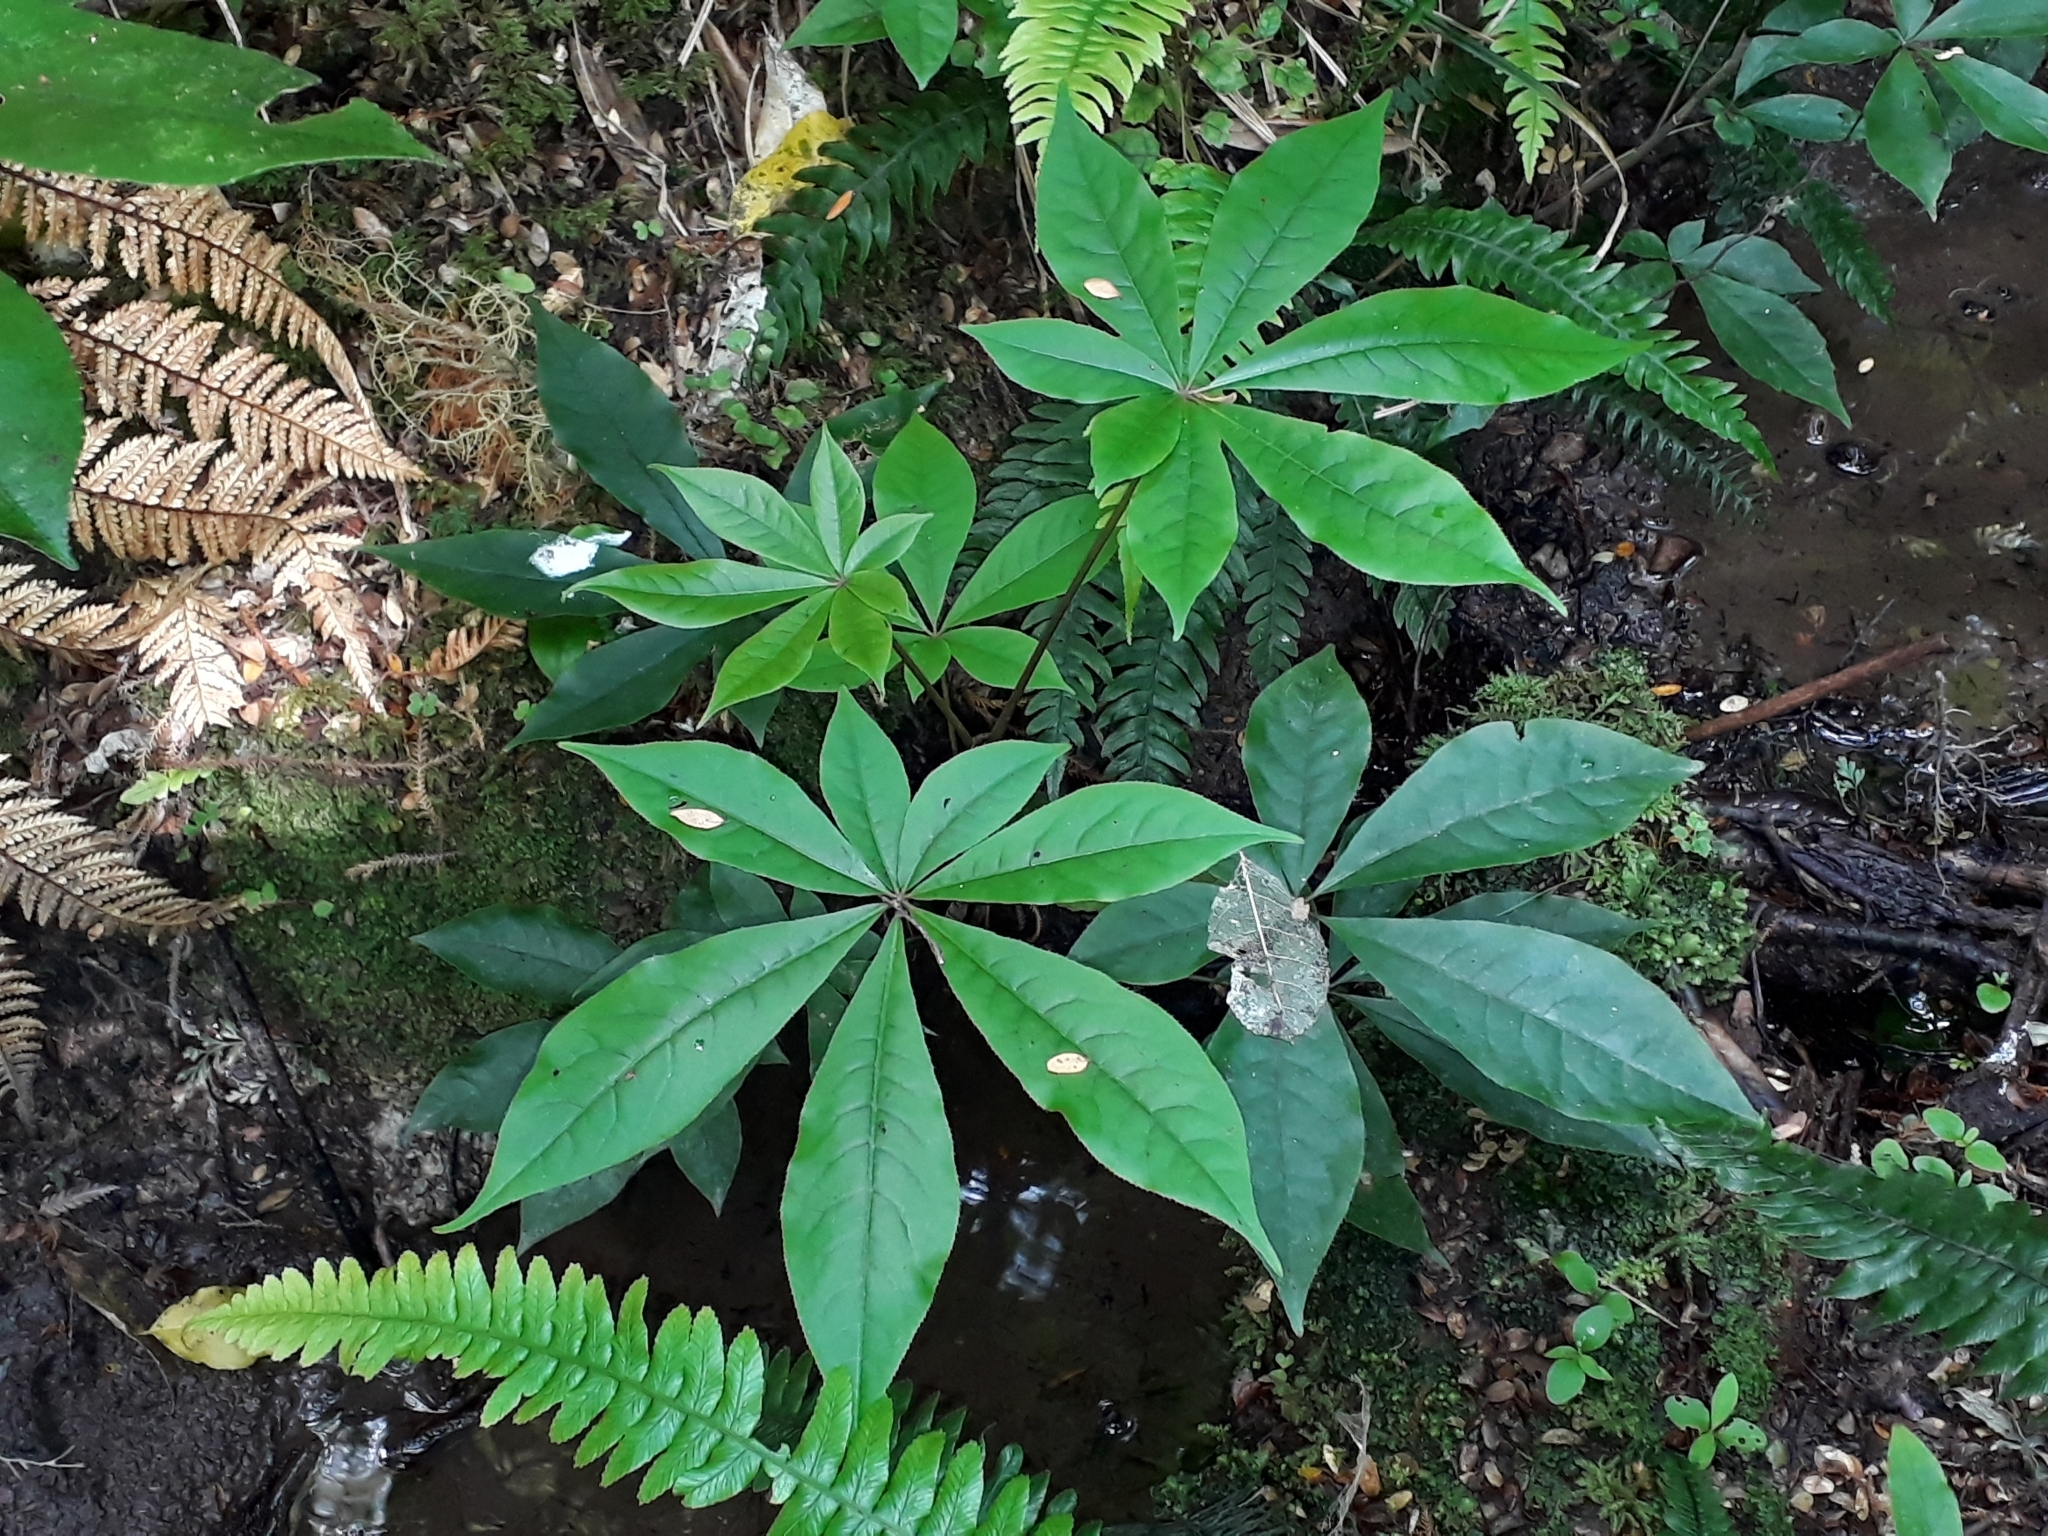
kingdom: Plantae
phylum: Tracheophyta
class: Magnoliopsida
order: Apiales
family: Araliaceae
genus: Schefflera
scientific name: Schefflera digitata
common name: Pate
